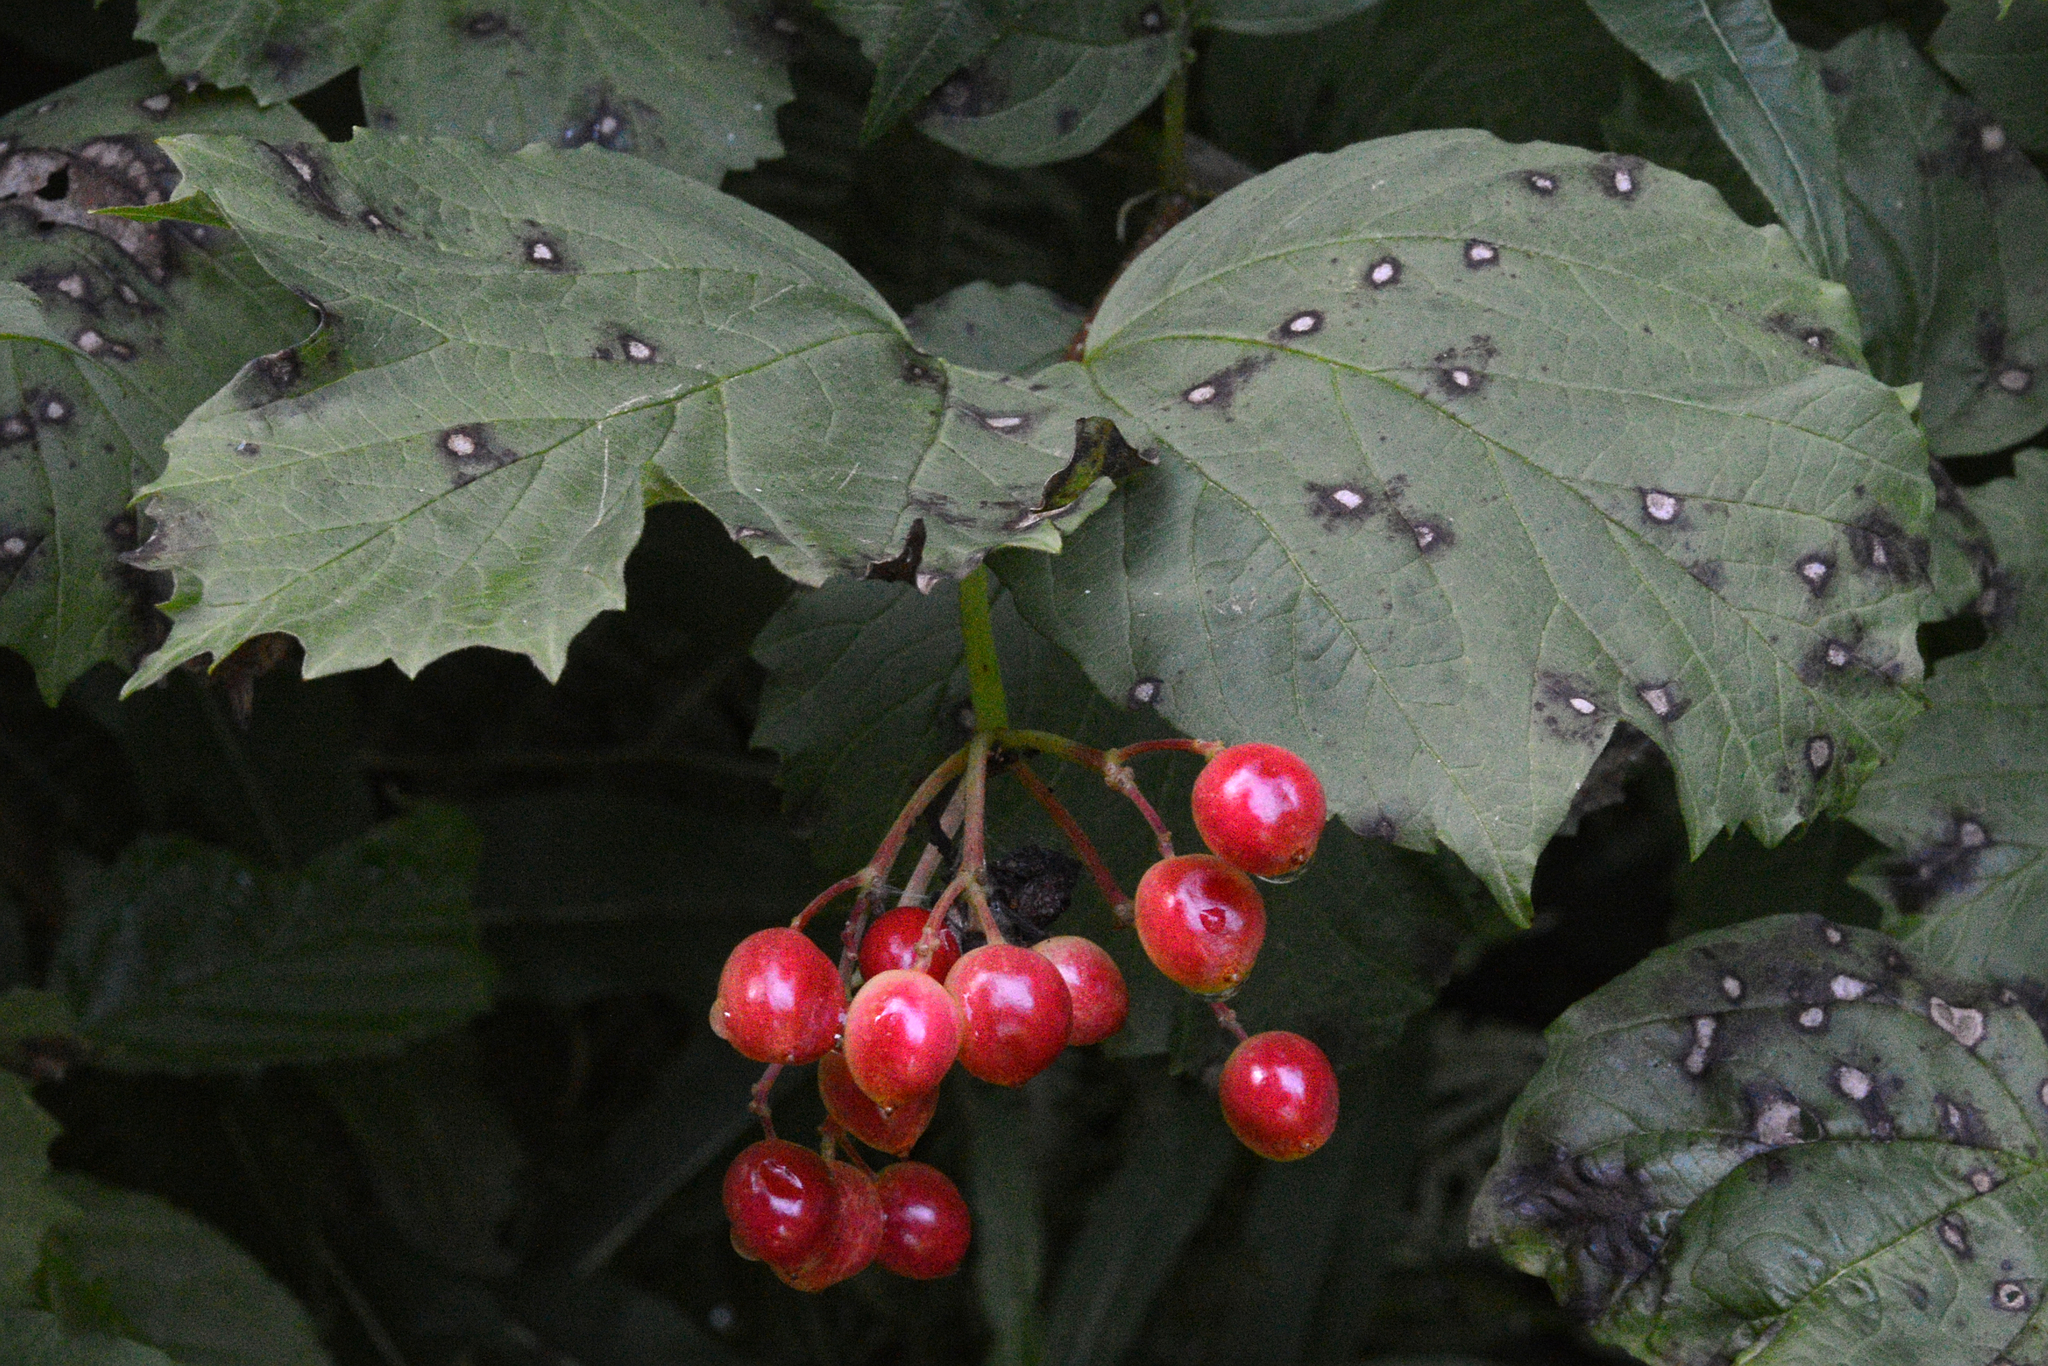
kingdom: Plantae
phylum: Tracheophyta
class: Magnoliopsida
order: Dipsacales
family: Viburnaceae
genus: Viburnum
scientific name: Viburnum opulus
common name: Guelder-rose
